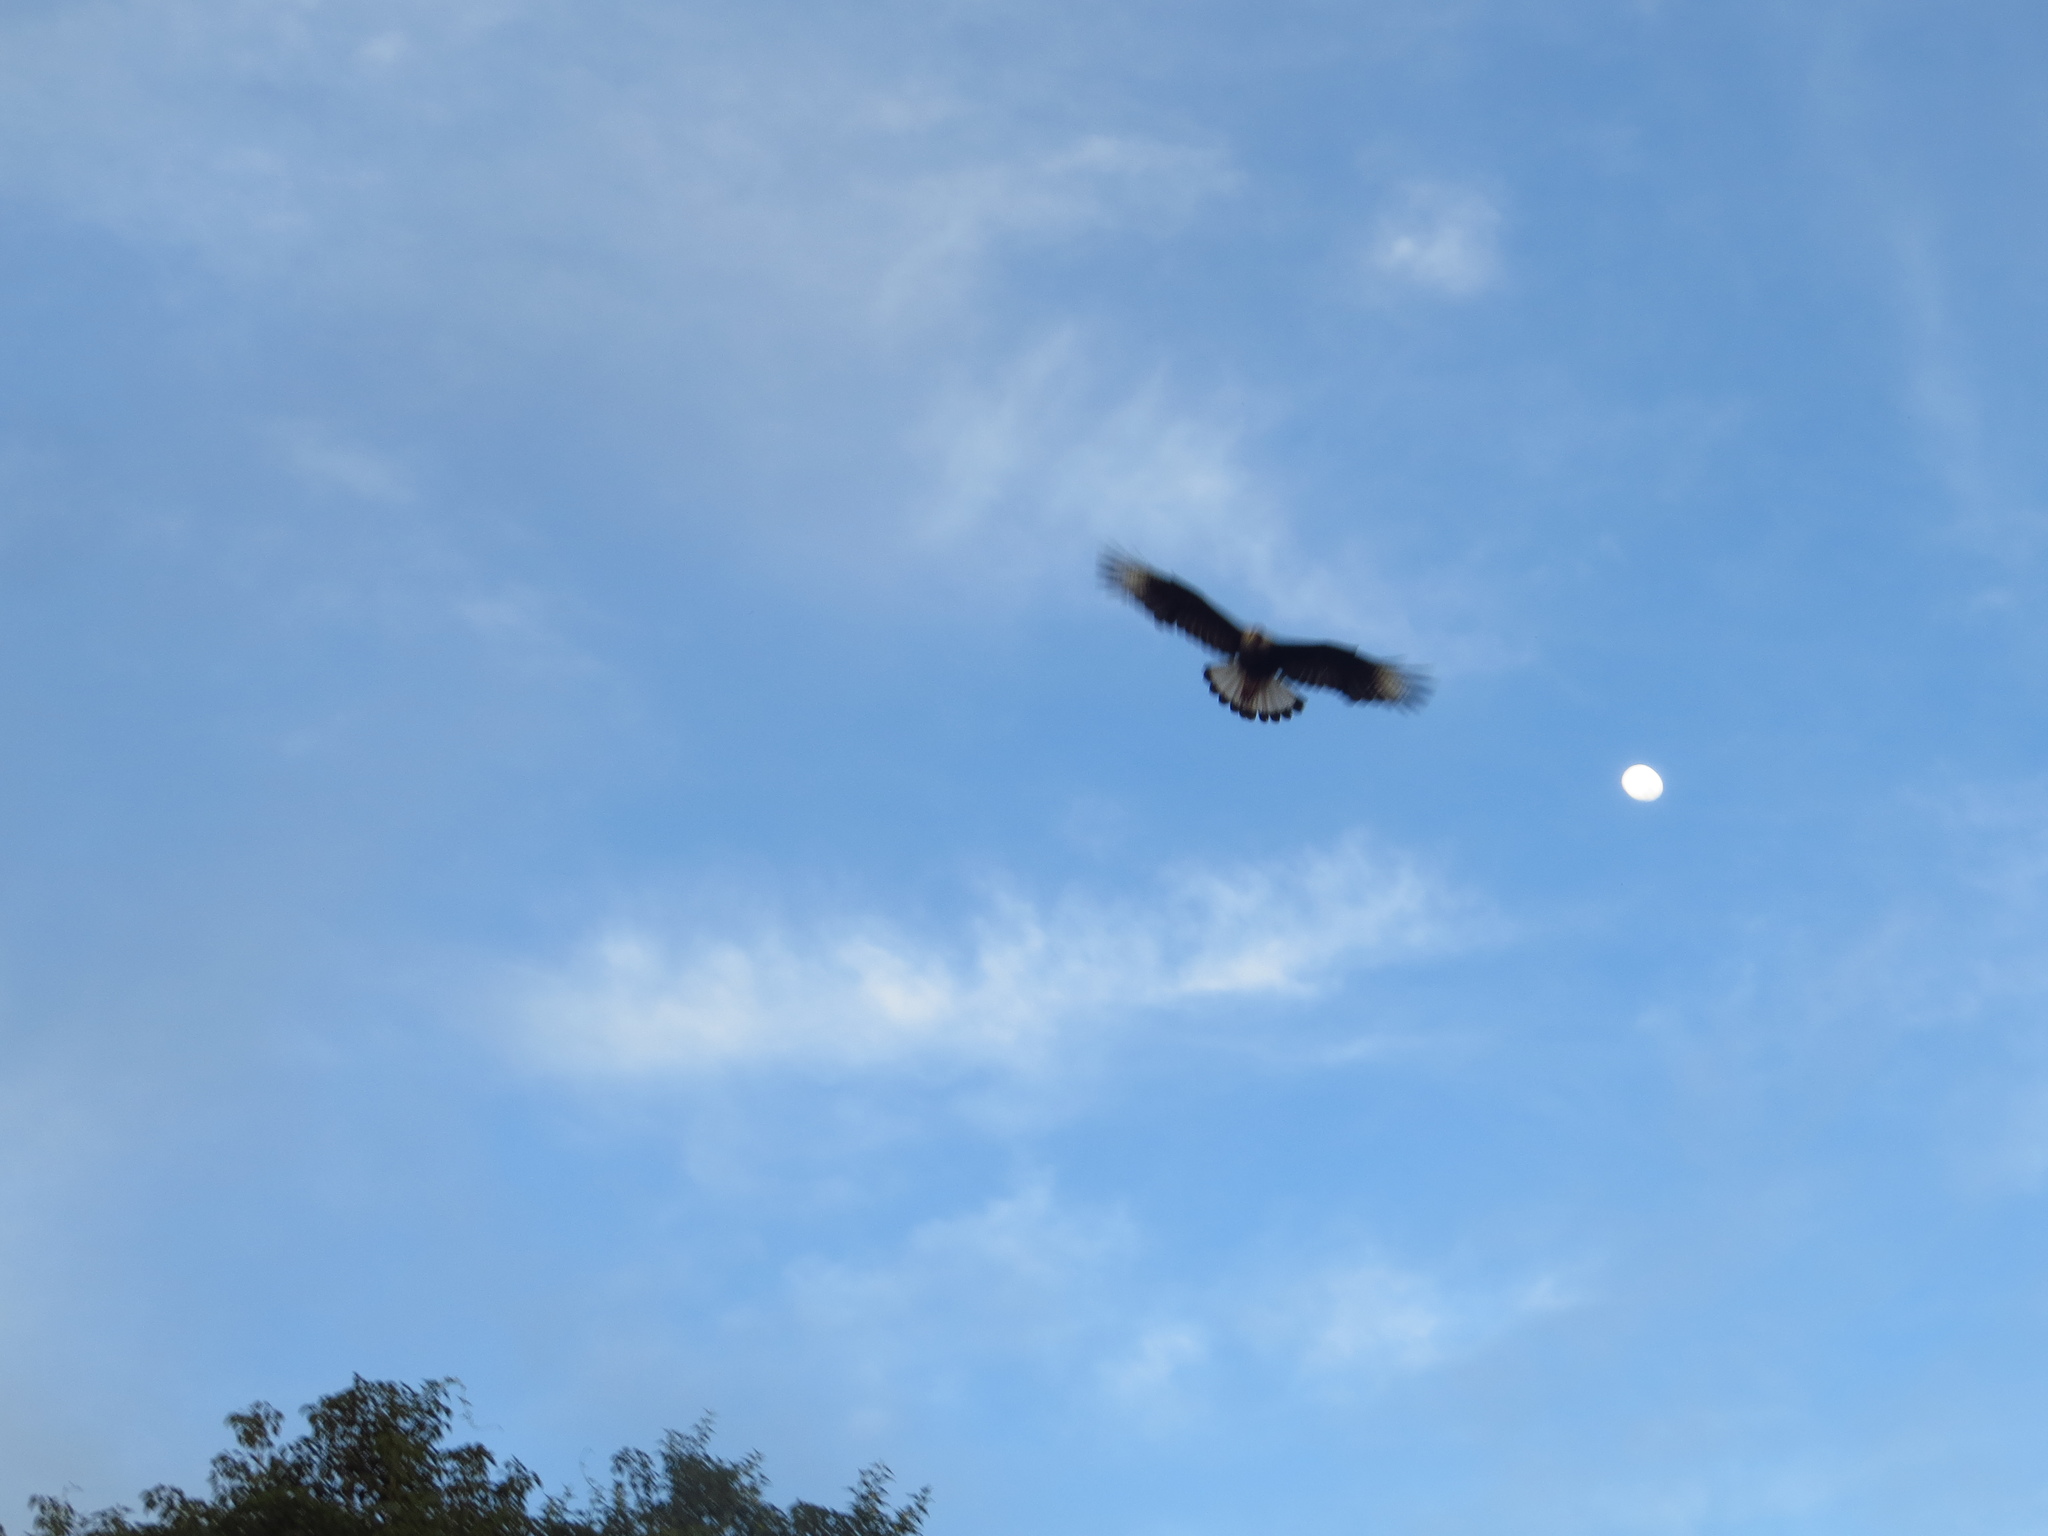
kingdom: Animalia
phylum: Chordata
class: Aves
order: Falconiformes
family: Falconidae
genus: Caracara
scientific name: Caracara plancus
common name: Southern caracara
